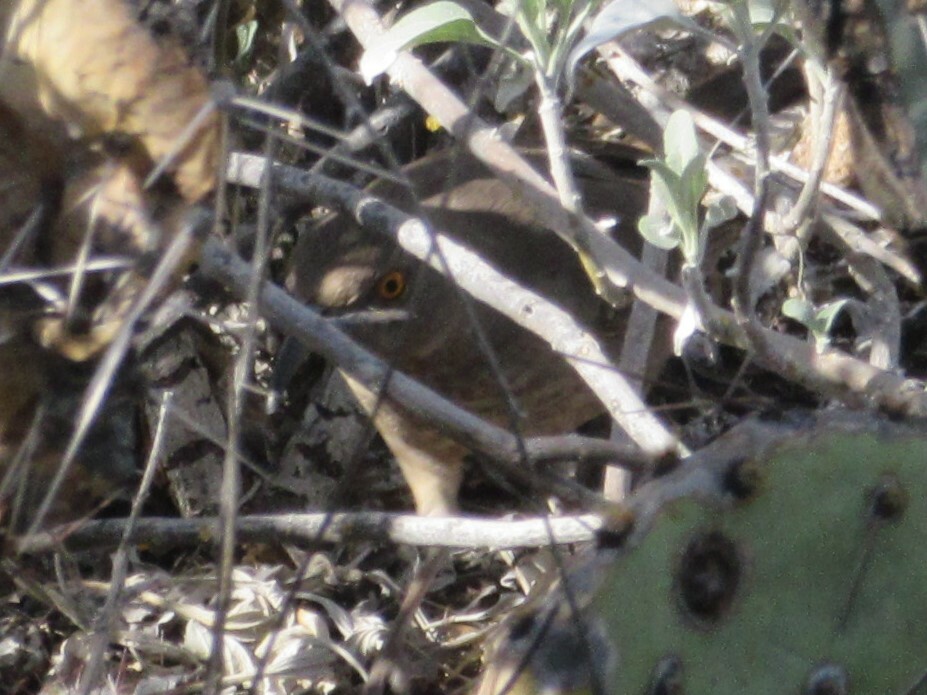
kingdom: Animalia
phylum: Chordata
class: Aves
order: Passeriformes
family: Mimidae
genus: Toxostoma
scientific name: Toxostoma curvirostre
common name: Curve-billed thrasher
